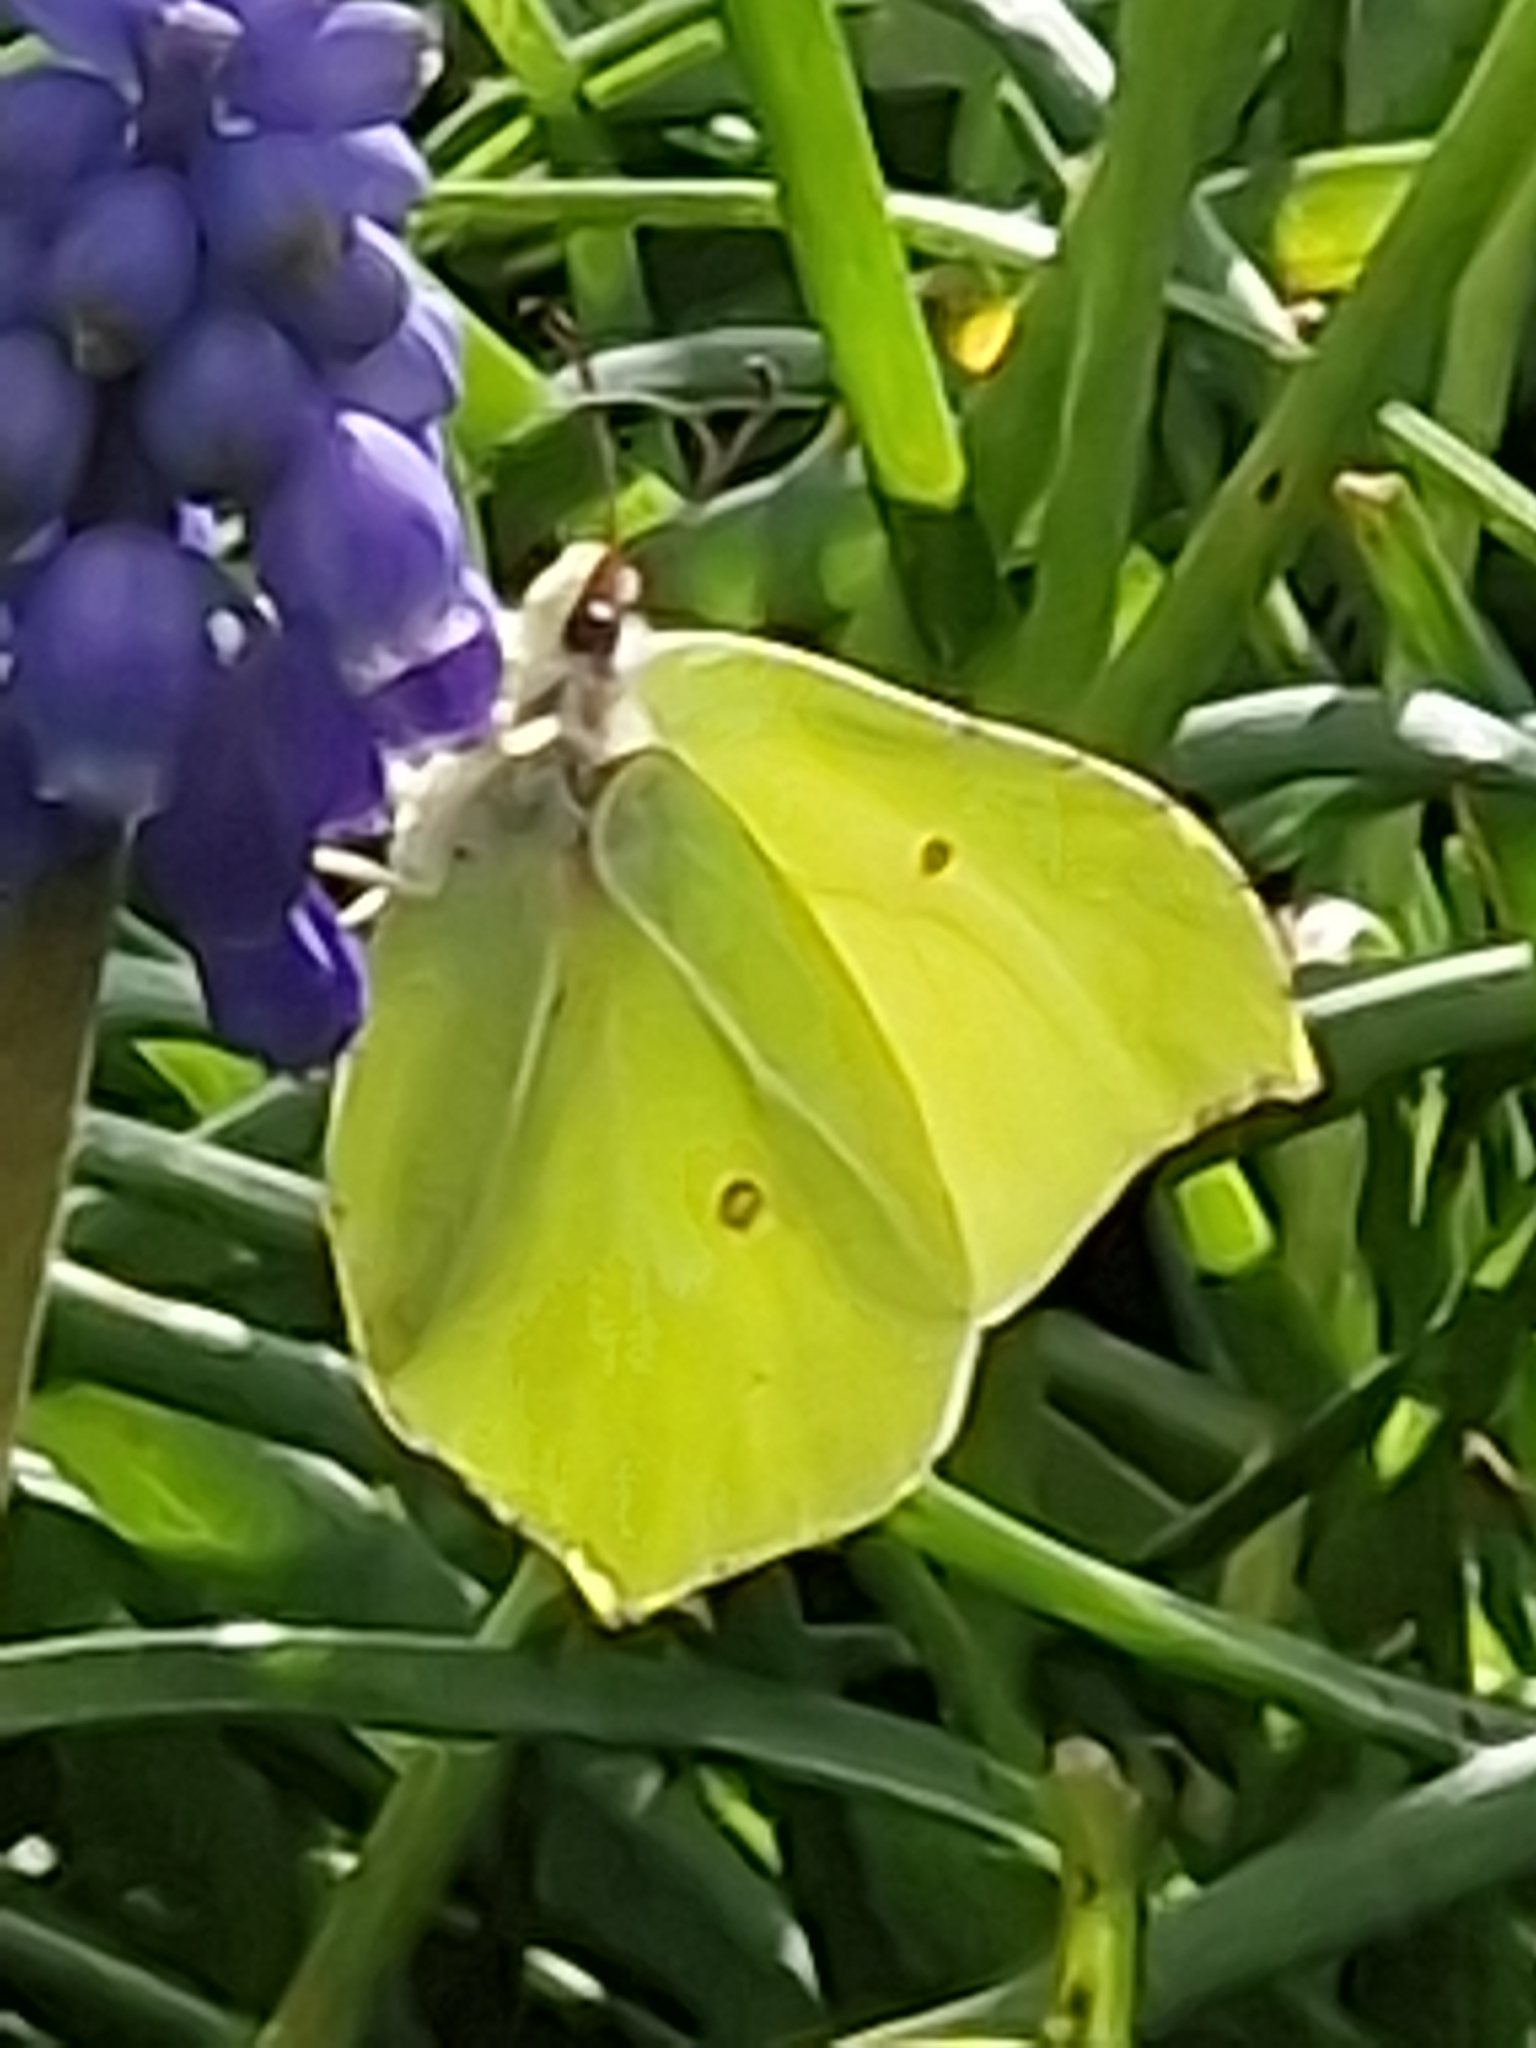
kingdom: Animalia
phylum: Arthropoda
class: Insecta
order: Lepidoptera
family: Pieridae
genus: Gonepteryx
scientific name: Gonepteryx rhamni
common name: Brimstone
